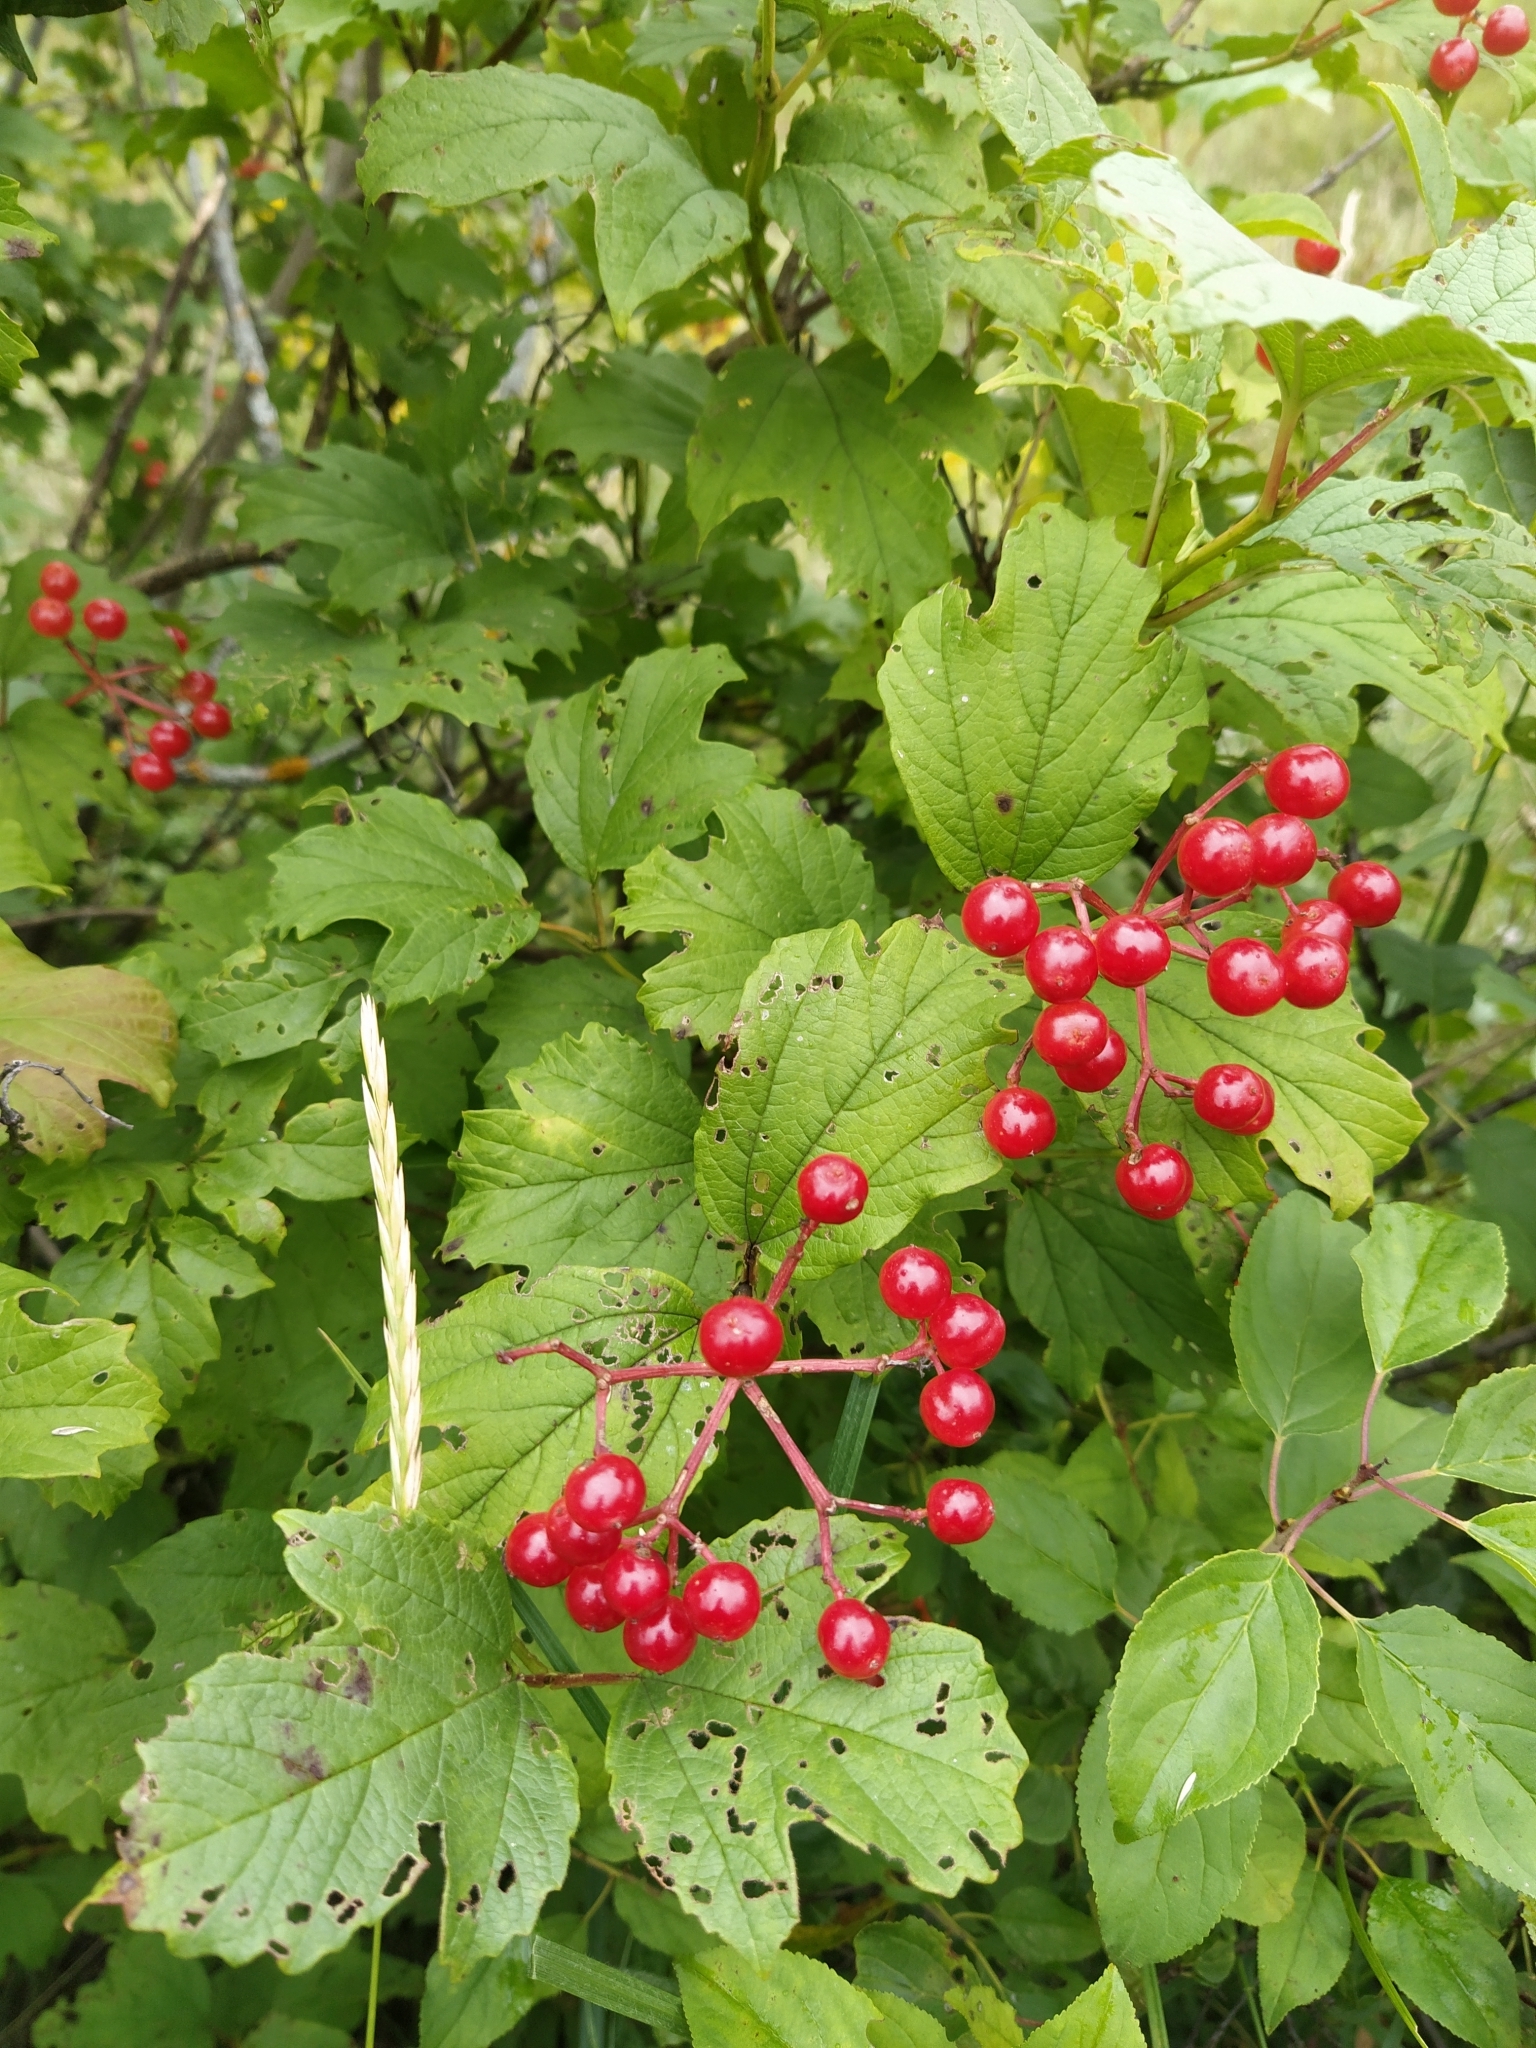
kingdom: Plantae
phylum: Tracheophyta
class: Magnoliopsida
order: Dipsacales
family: Viburnaceae
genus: Viburnum
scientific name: Viburnum opulus
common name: Guelder-rose
